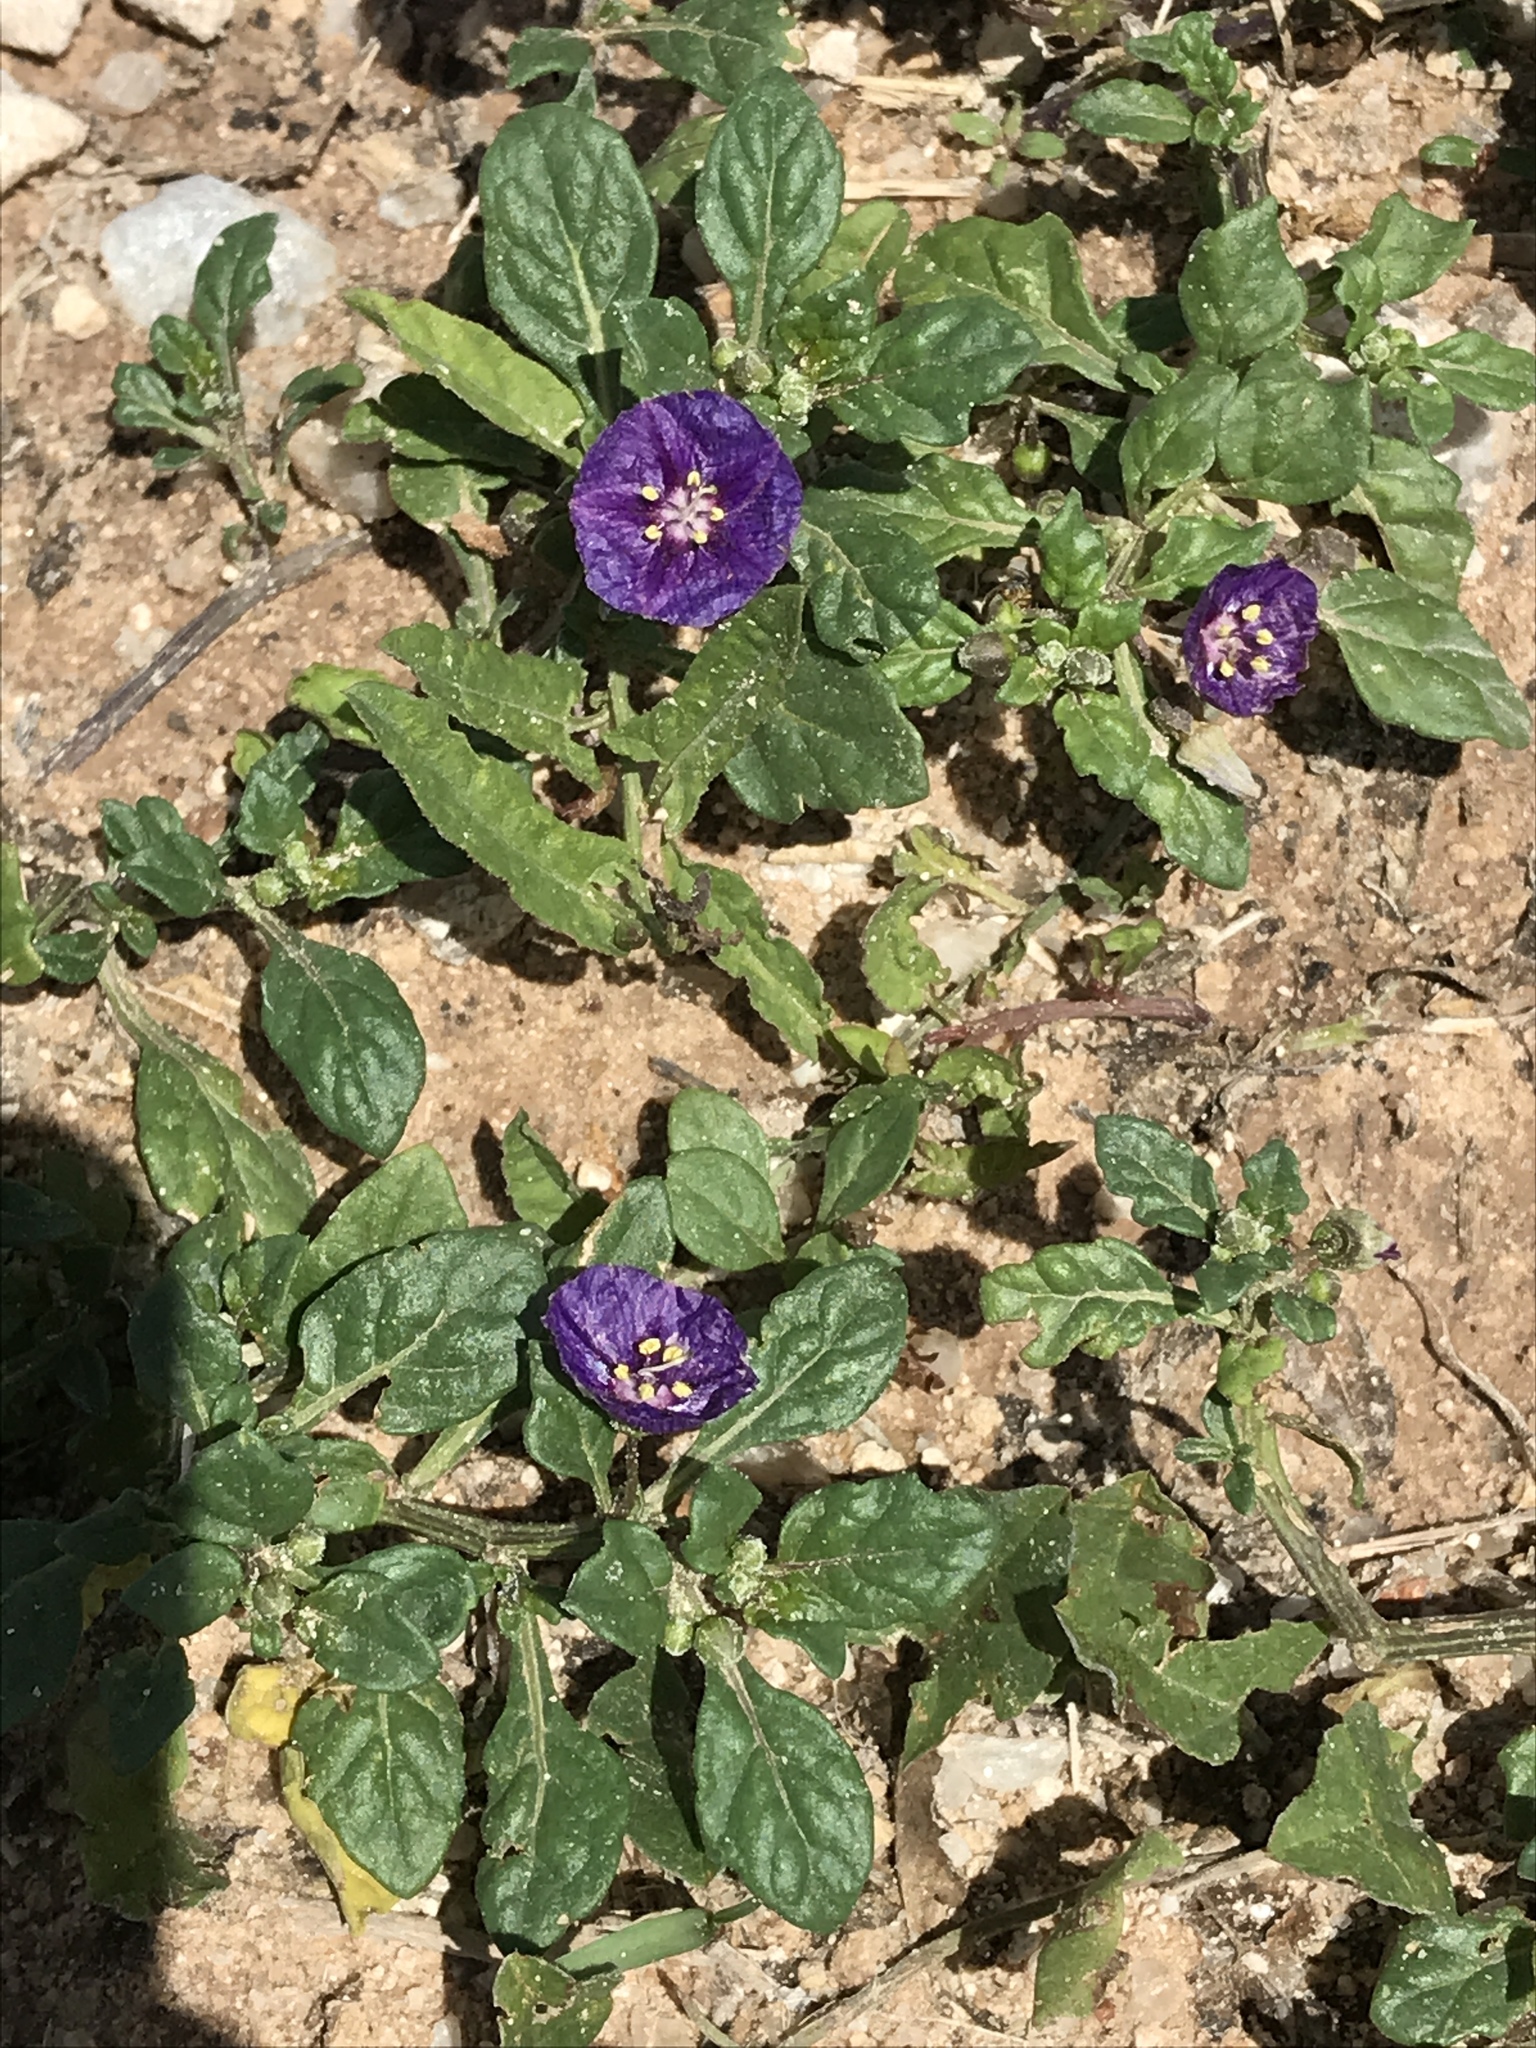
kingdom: Plantae
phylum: Tracheophyta
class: Magnoliopsida
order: Solanales
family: Solanaceae
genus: Quincula
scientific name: Quincula lobata
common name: Purple-ground-cherry
